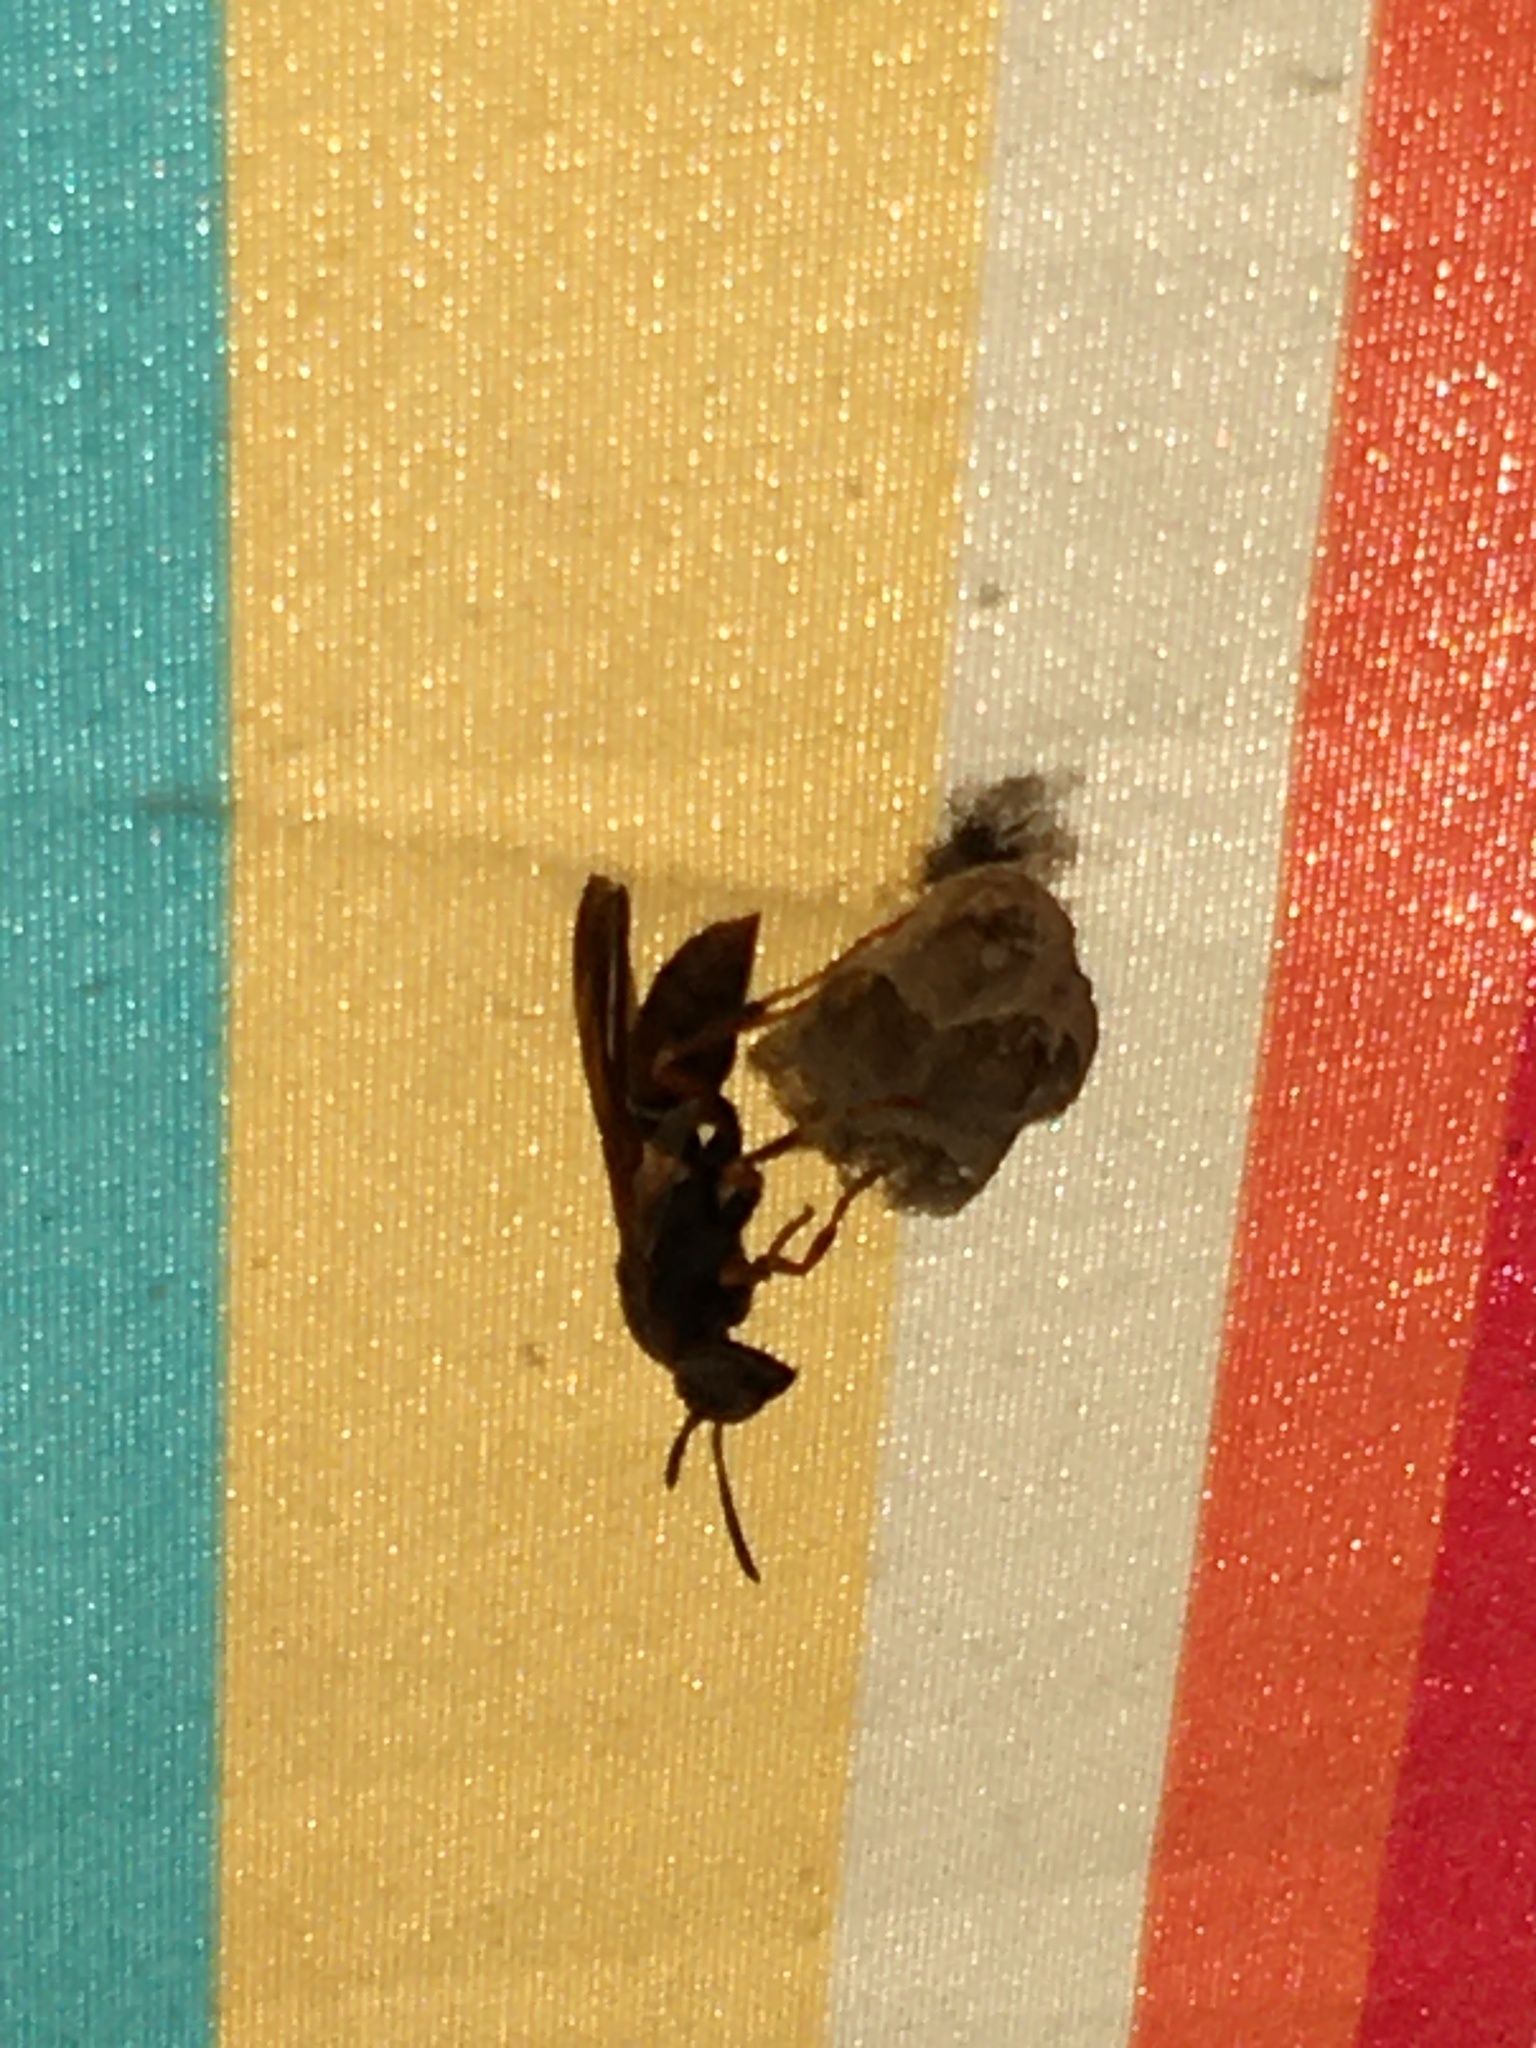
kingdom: Animalia
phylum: Arthropoda
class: Insecta
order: Hymenoptera
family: Vespidae
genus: Fuscopolistes
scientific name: Fuscopolistes
